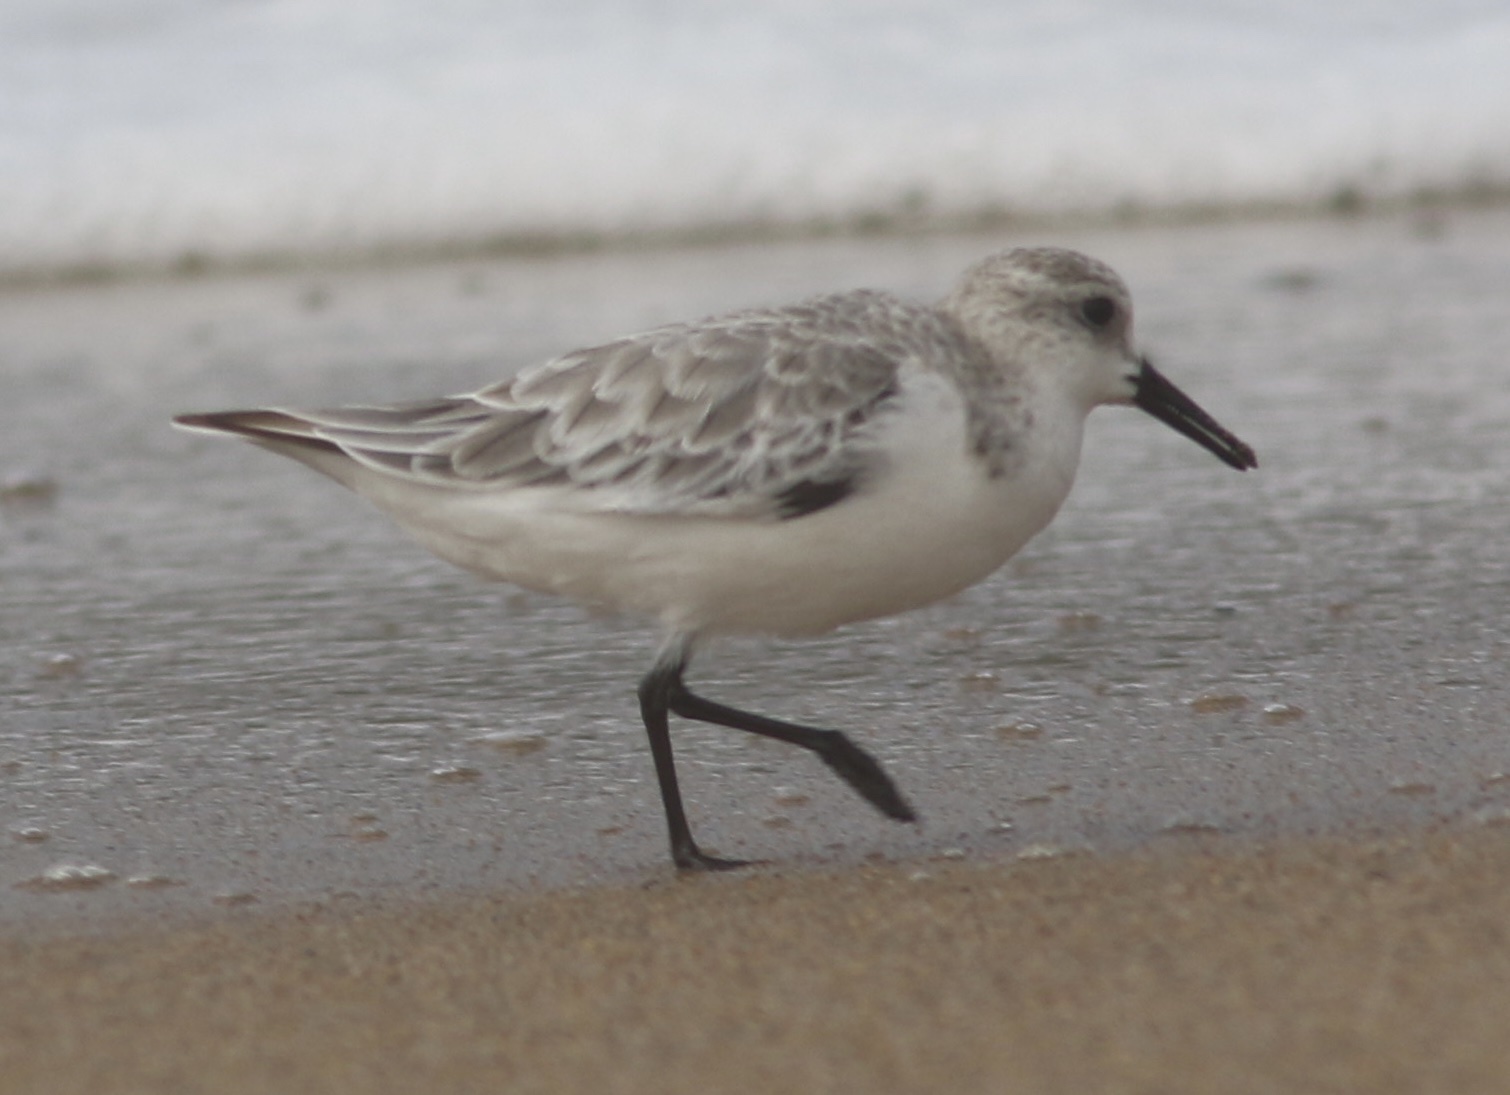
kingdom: Animalia
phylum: Chordata
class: Aves
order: Charadriiformes
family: Scolopacidae
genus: Calidris
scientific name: Calidris alba
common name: Sanderling
